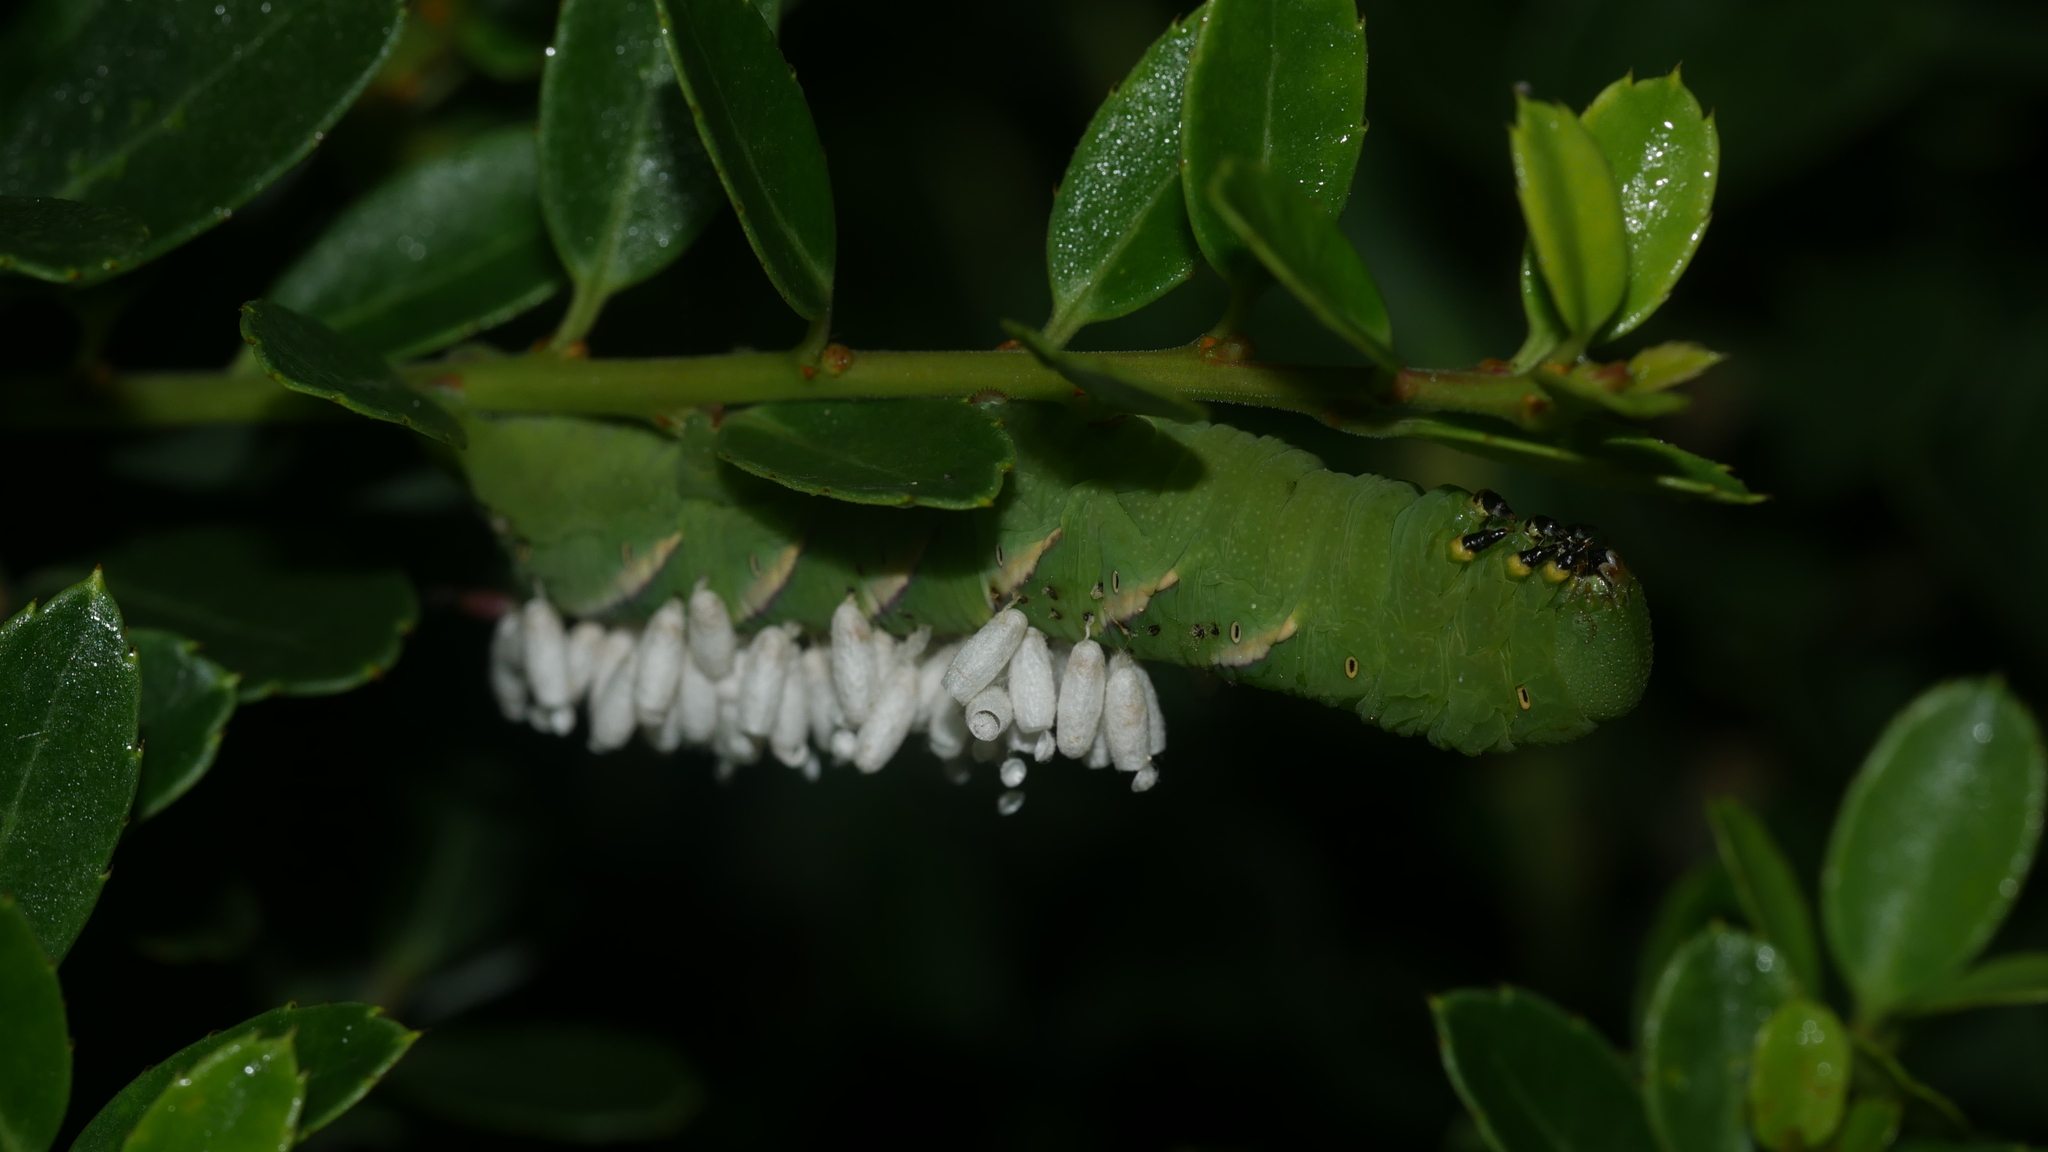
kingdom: Animalia
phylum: Arthropoda
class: Insecta
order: Hymenoptera
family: Braconidae
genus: Cotesia
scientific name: Cotesia congregata
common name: Hornworm parasitoid wasp
